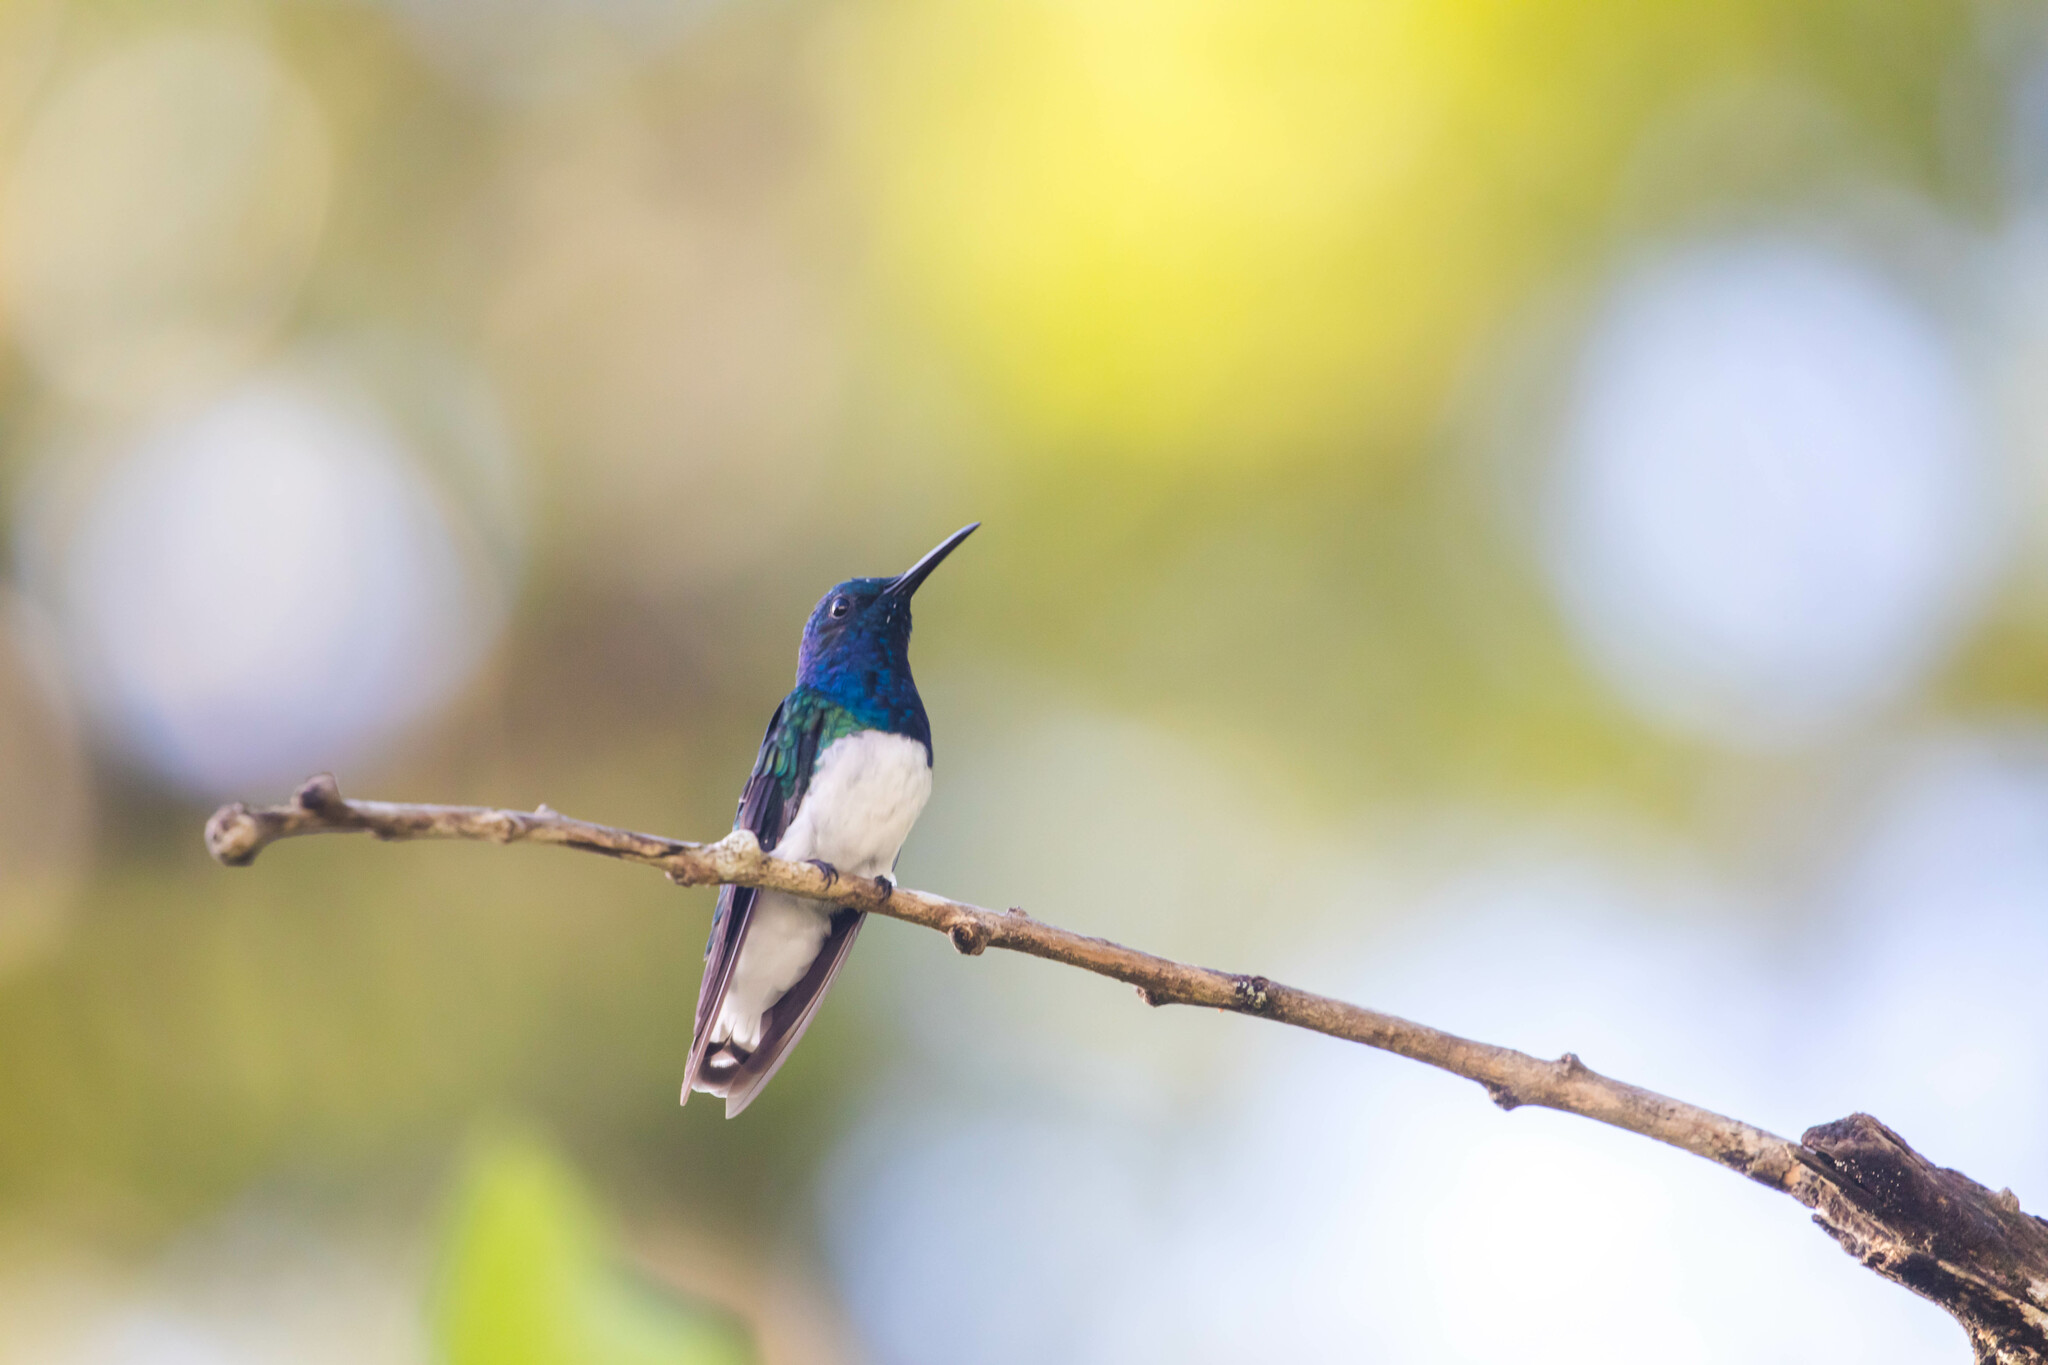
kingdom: Animalia
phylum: Chordata
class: Aves
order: Apodiformes
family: Trochilidae
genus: Florisuga
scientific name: Florisuga mellivora
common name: White-necked jacobin
